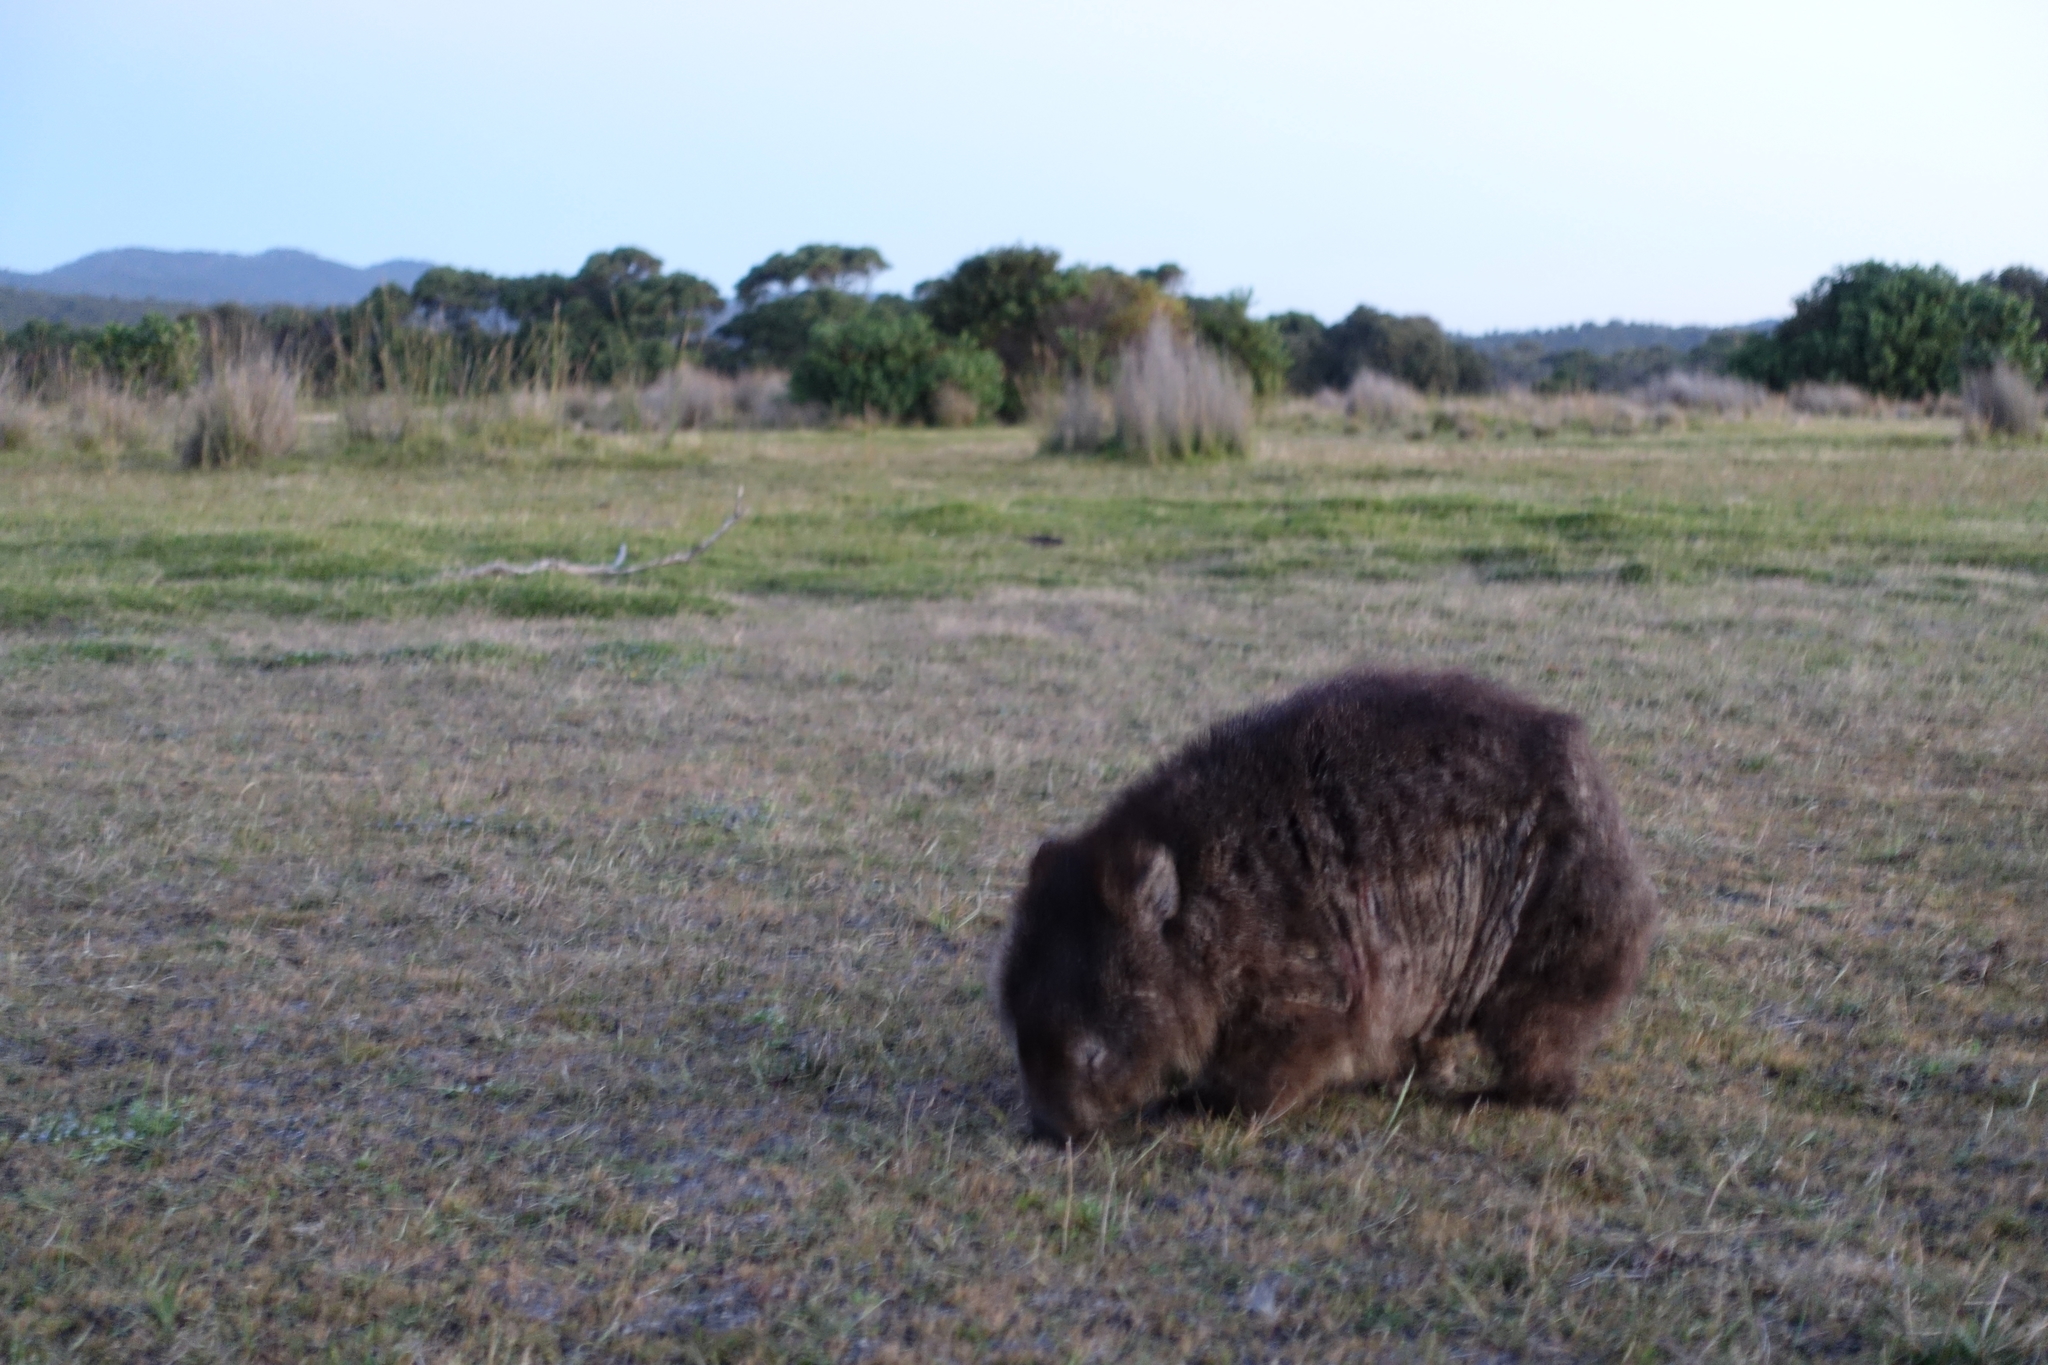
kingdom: Animalia
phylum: Chordata
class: Mammalia
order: Diprotodontia
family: Vombatidae
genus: Vombatus
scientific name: Vombatus ursinus
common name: Common wombat
